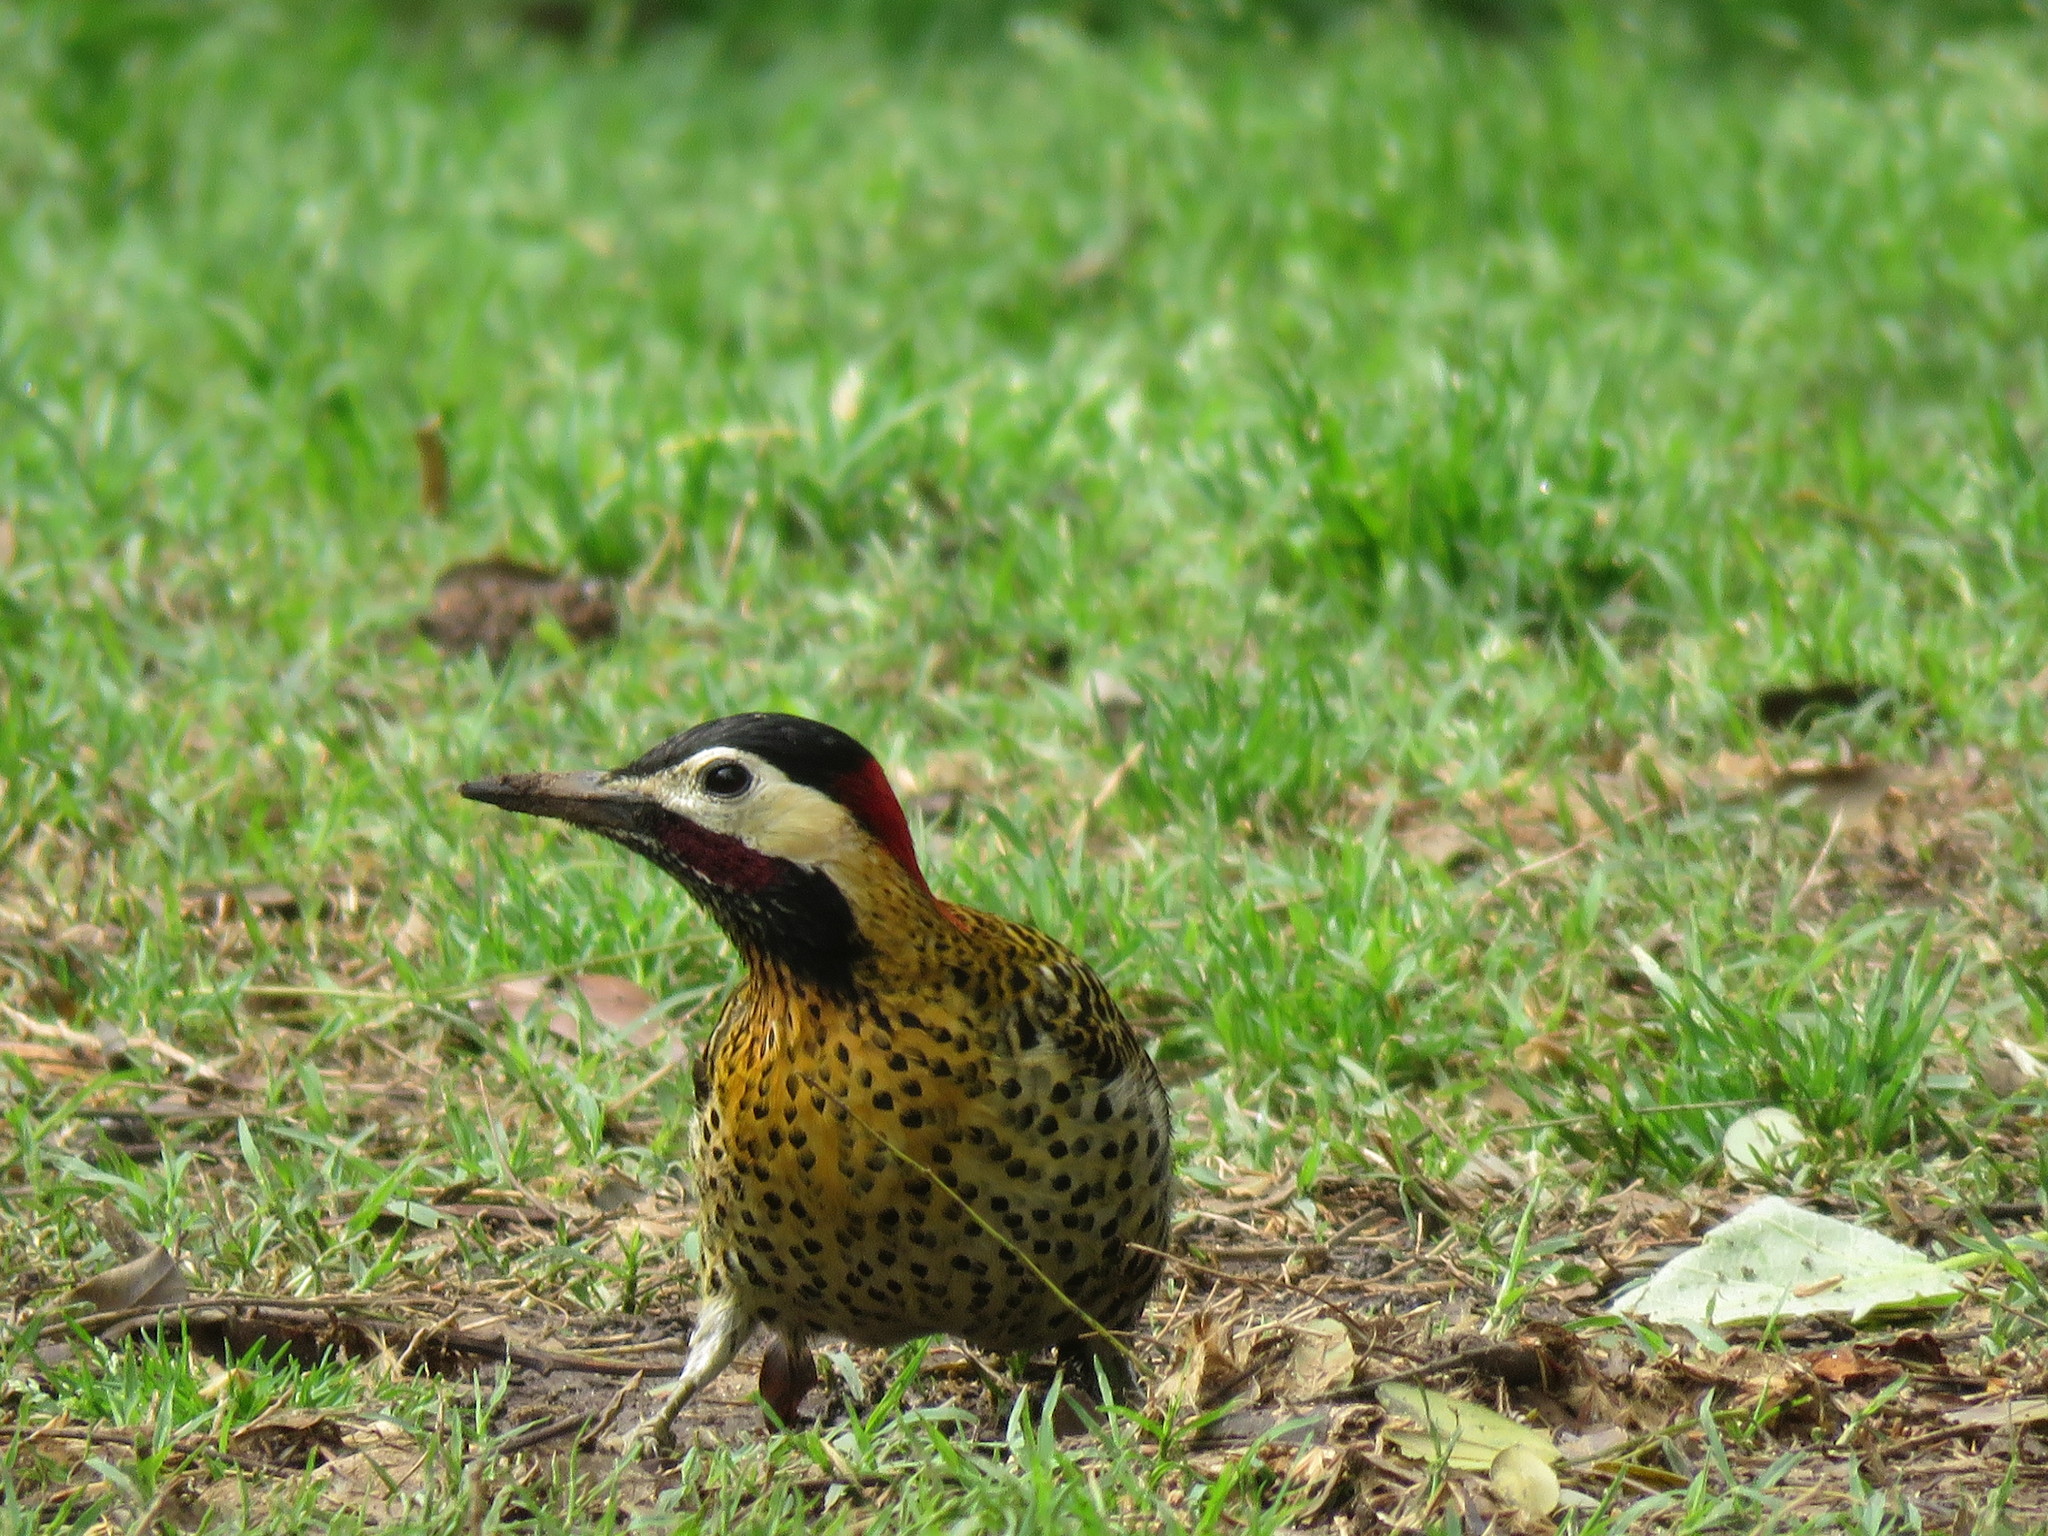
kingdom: Animalia
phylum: Chordata
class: Aves
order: Piciformes
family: Picidae
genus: Colaptes
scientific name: Colaptes melanochloros
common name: Green-barred woodpecker
